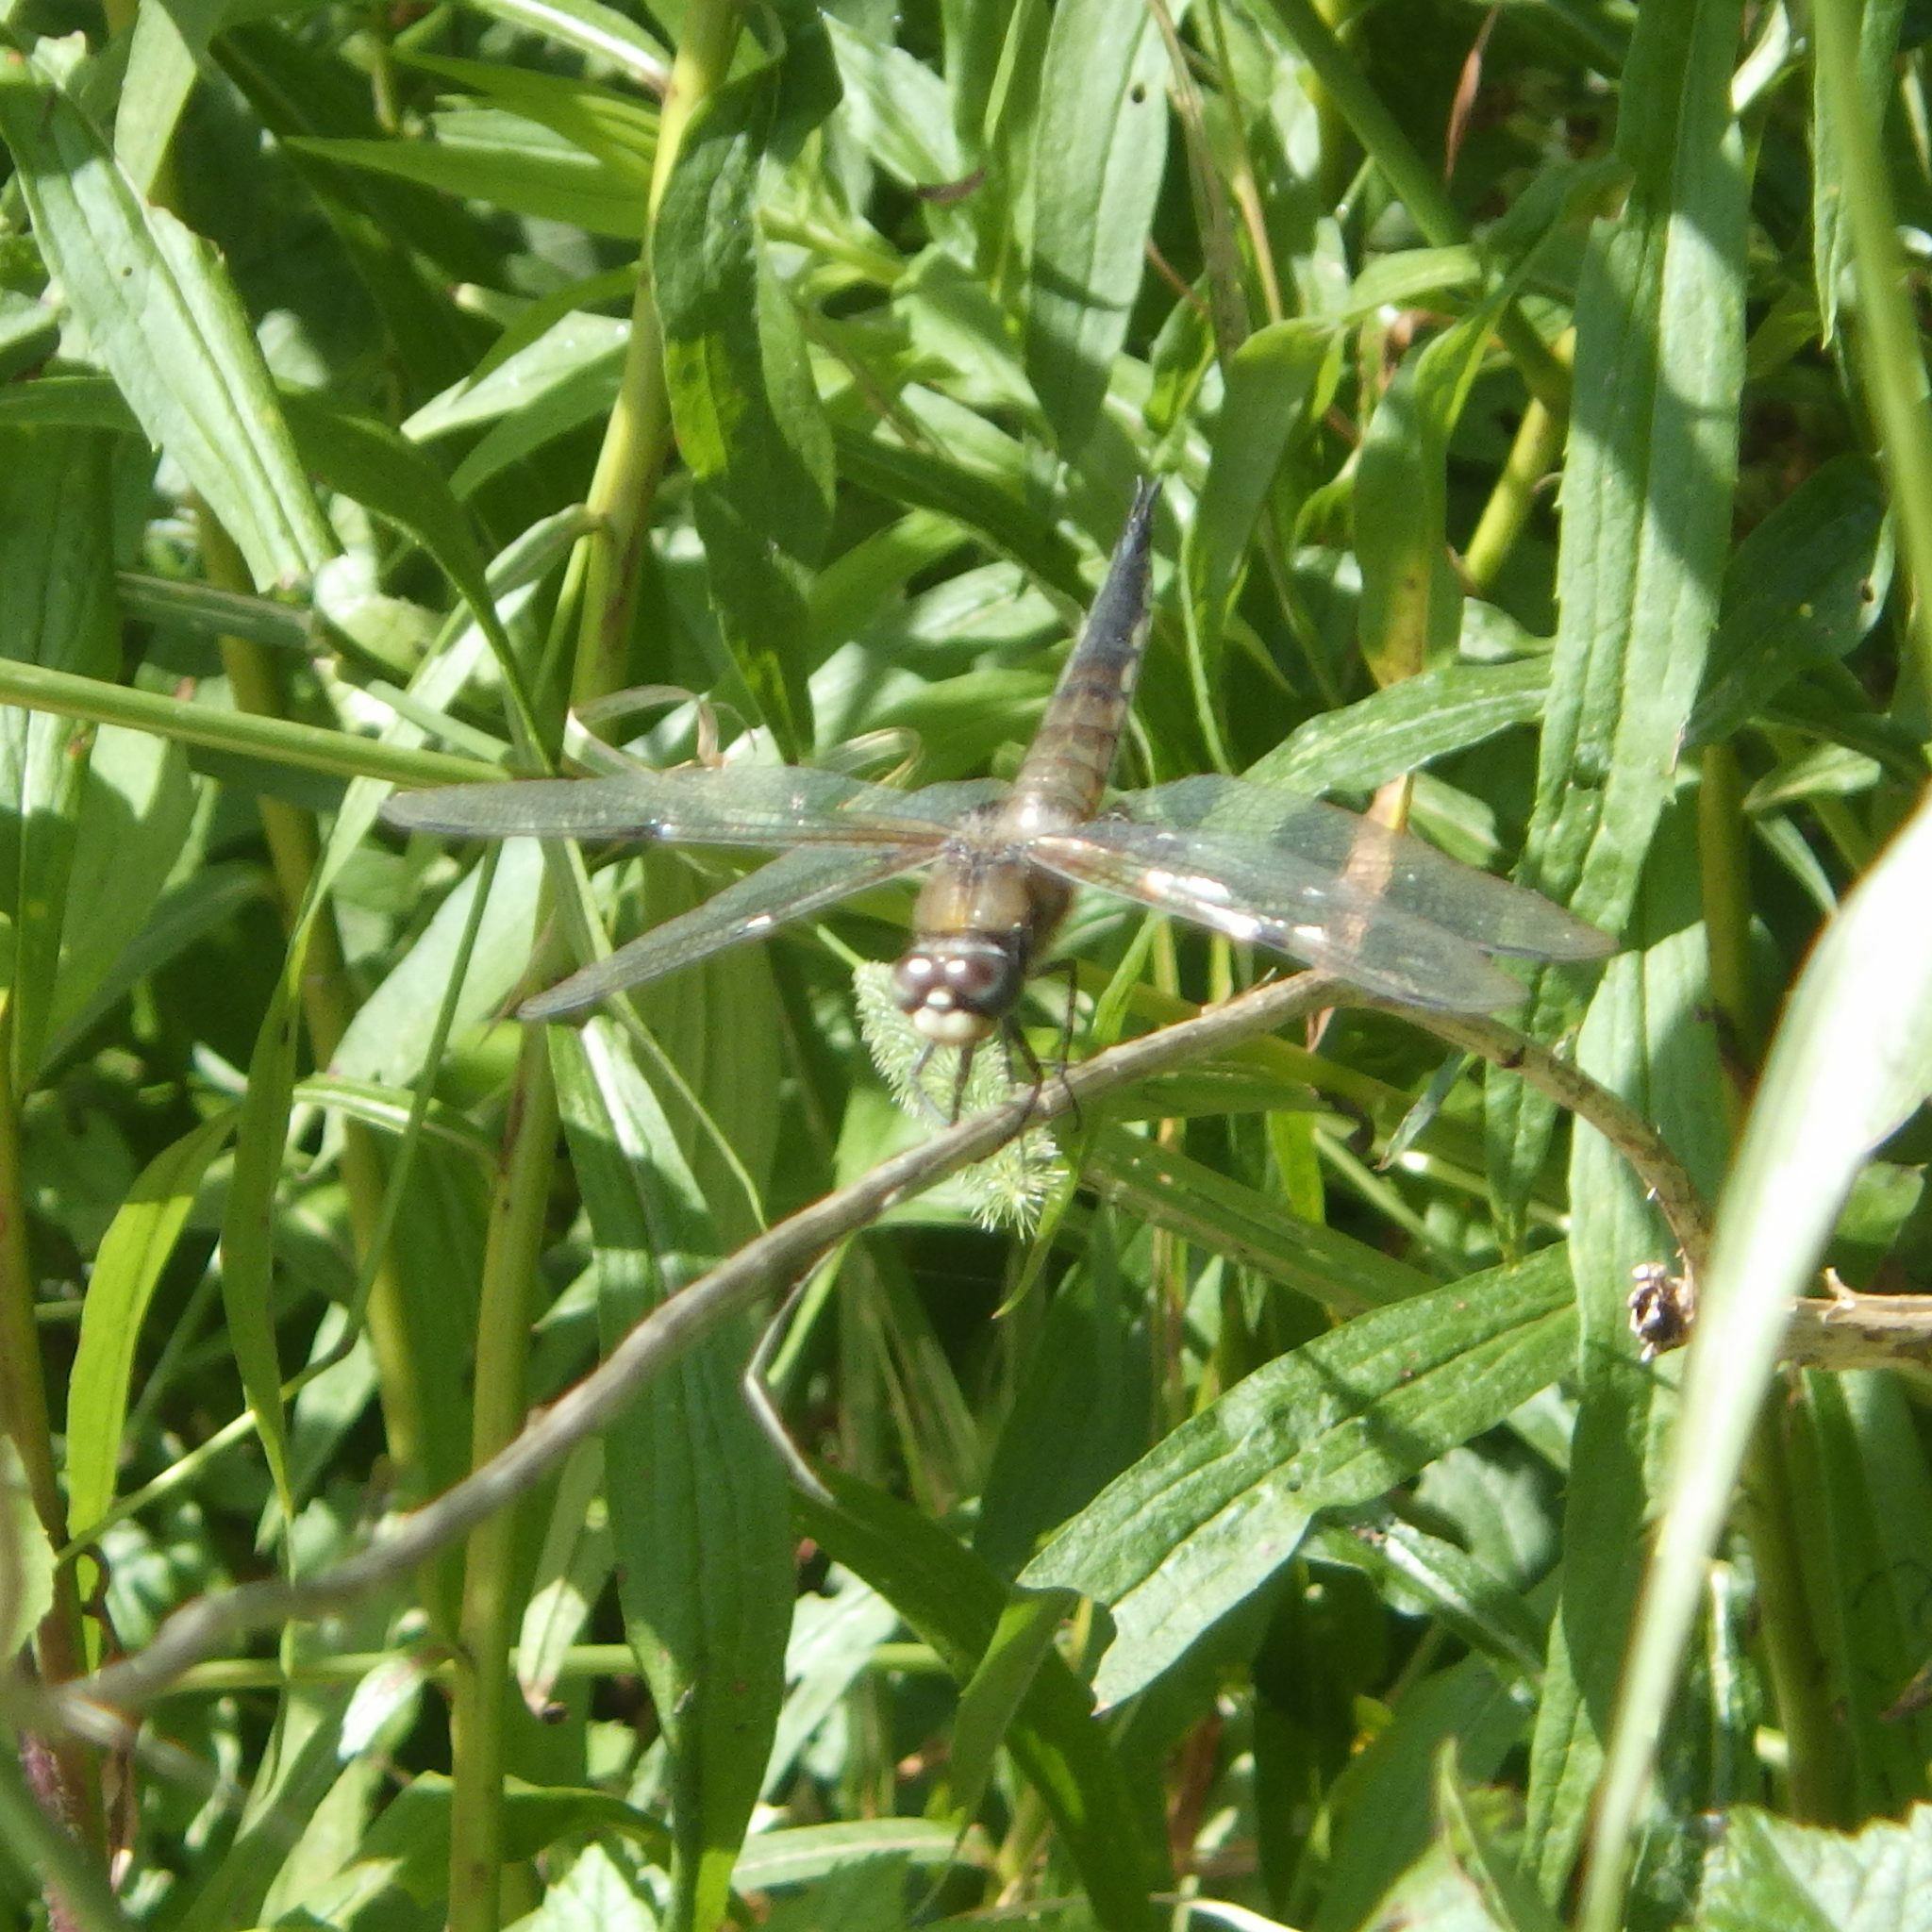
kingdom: Animalia
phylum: Arthropoda
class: Insecta
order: Odonata
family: Libellulidae
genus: Libellula
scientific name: Libellula quadrimaculata
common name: Four-spotted chaser
